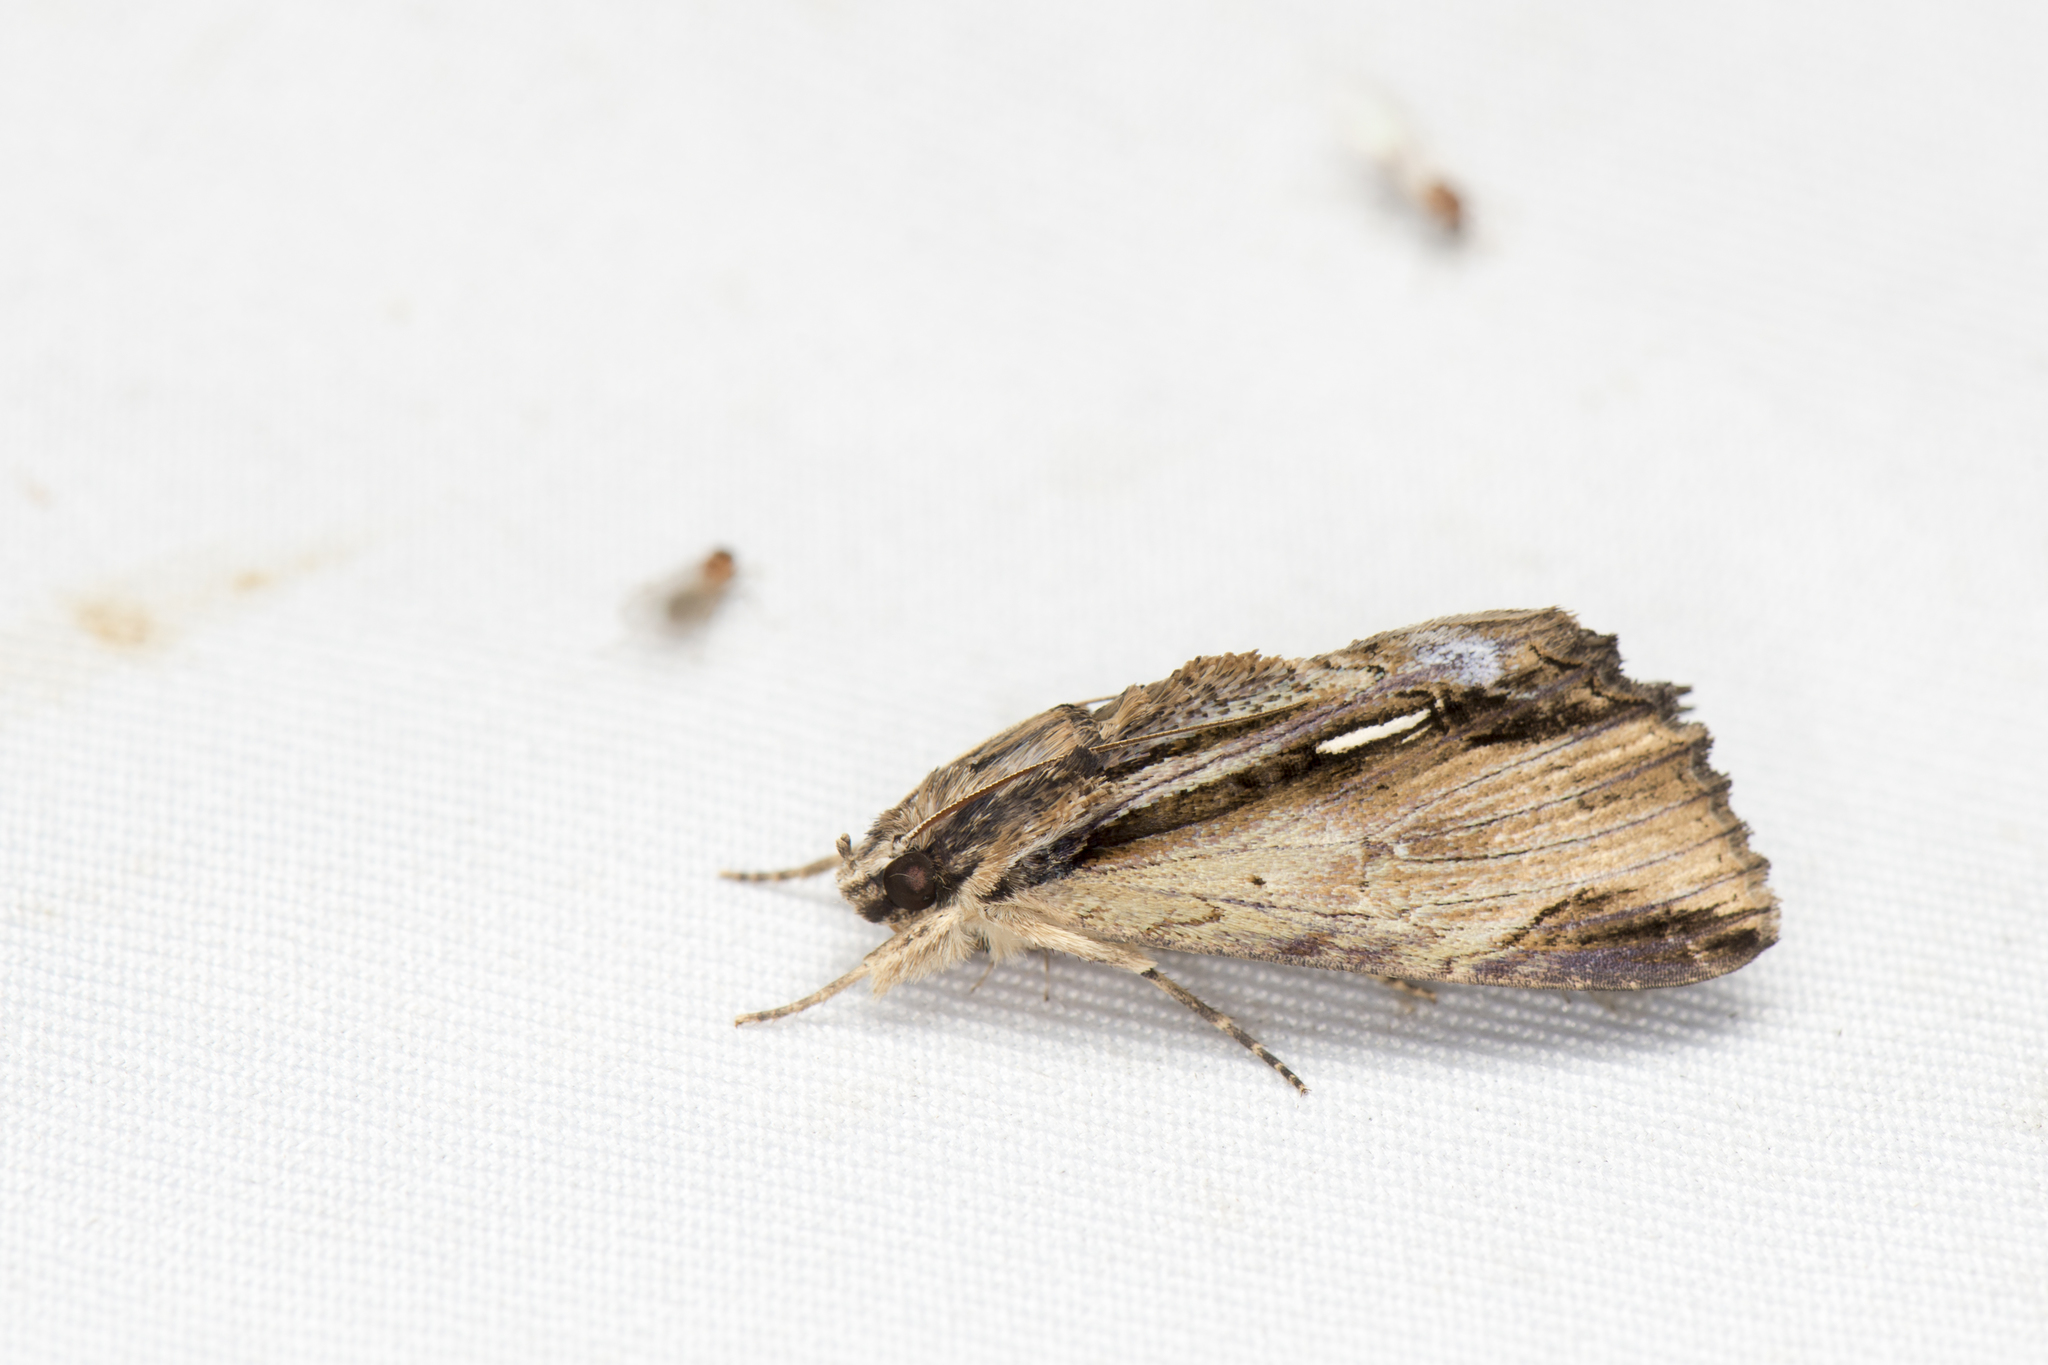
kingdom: Animalia
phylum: Arthropoda
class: Insecta
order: Lepidoptera
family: Erebidae
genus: Ercheia
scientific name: Ercheia niveostrigata
